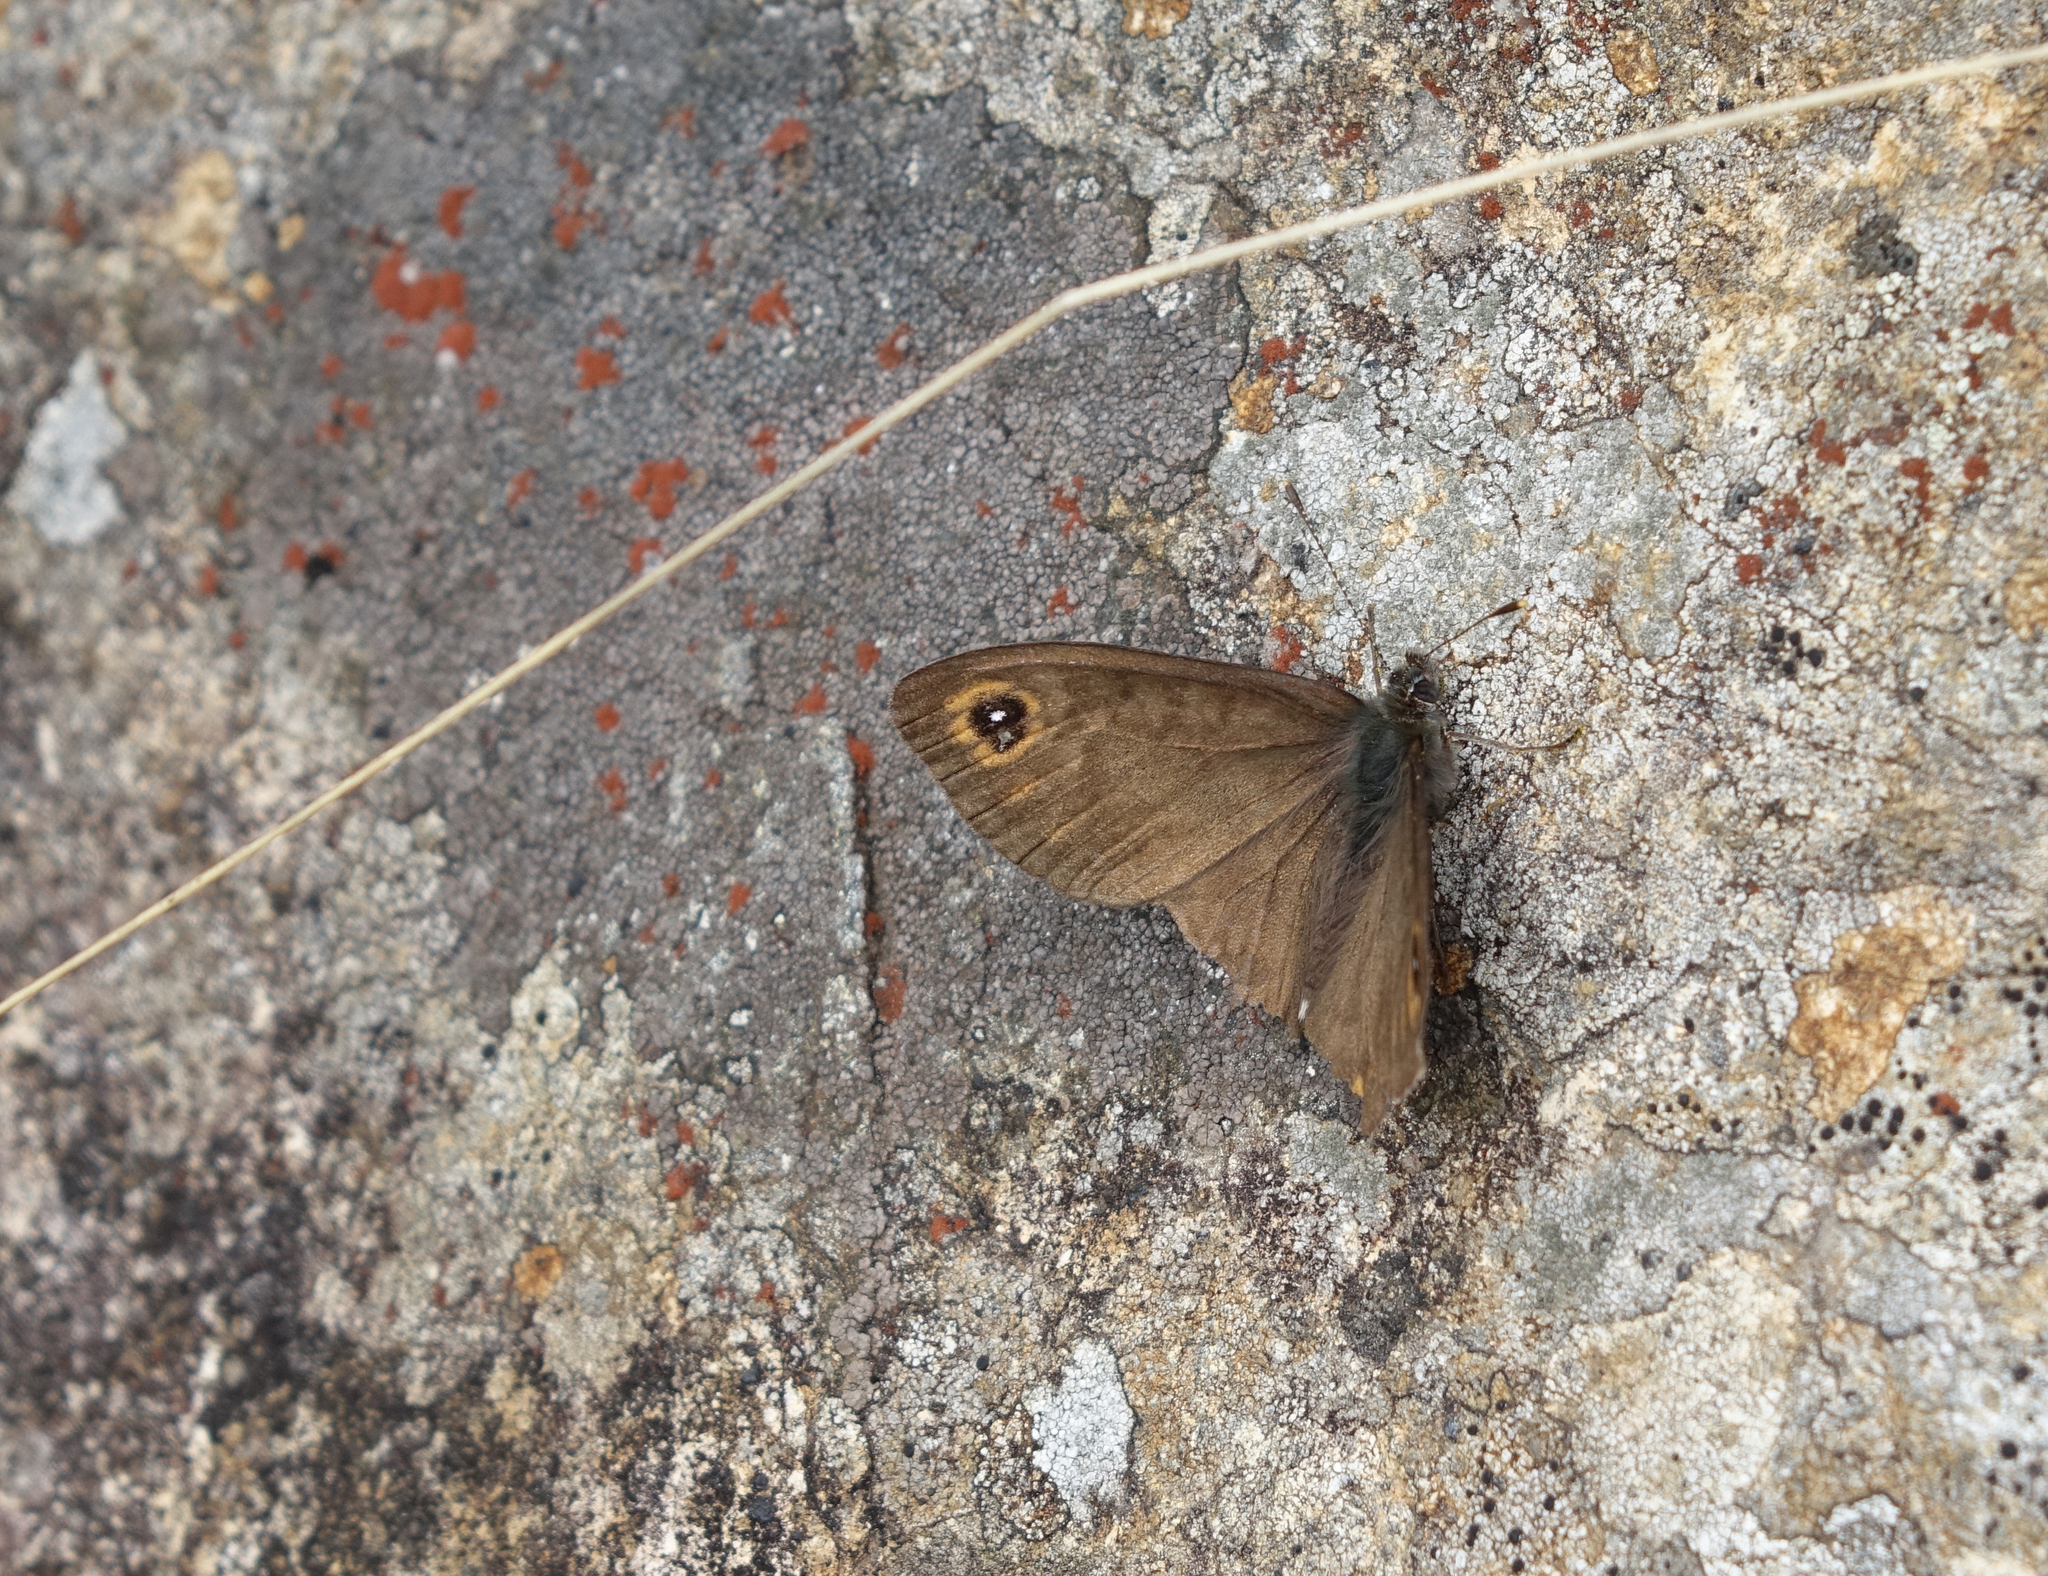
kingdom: Animalia
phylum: Arthropoda
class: Insecta
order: Lepidoptera
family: Nymphalidae
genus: Pararge
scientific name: Pararge petropolitana
